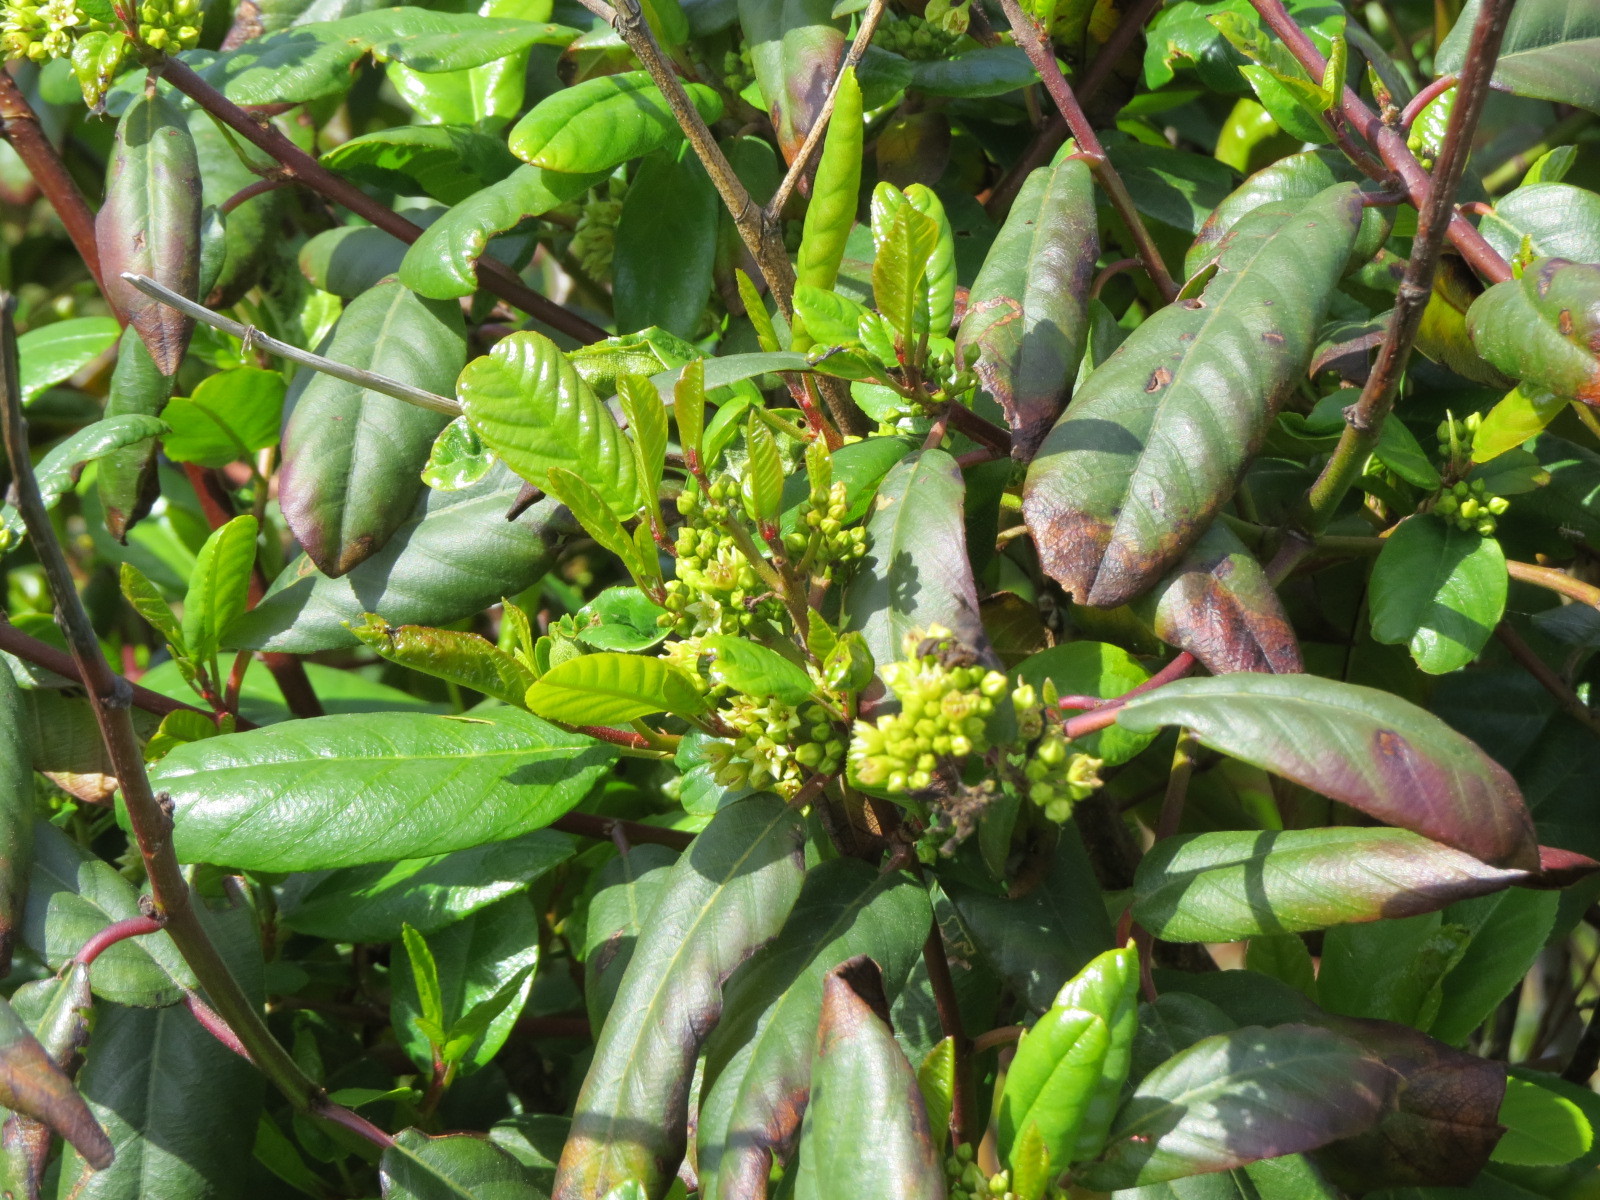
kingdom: Plantae
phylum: Tracheophyta
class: Magnoliopsida
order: Rosales
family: Rhamnaceae
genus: Frangula
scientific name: Frangula californica
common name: California buckthorn
